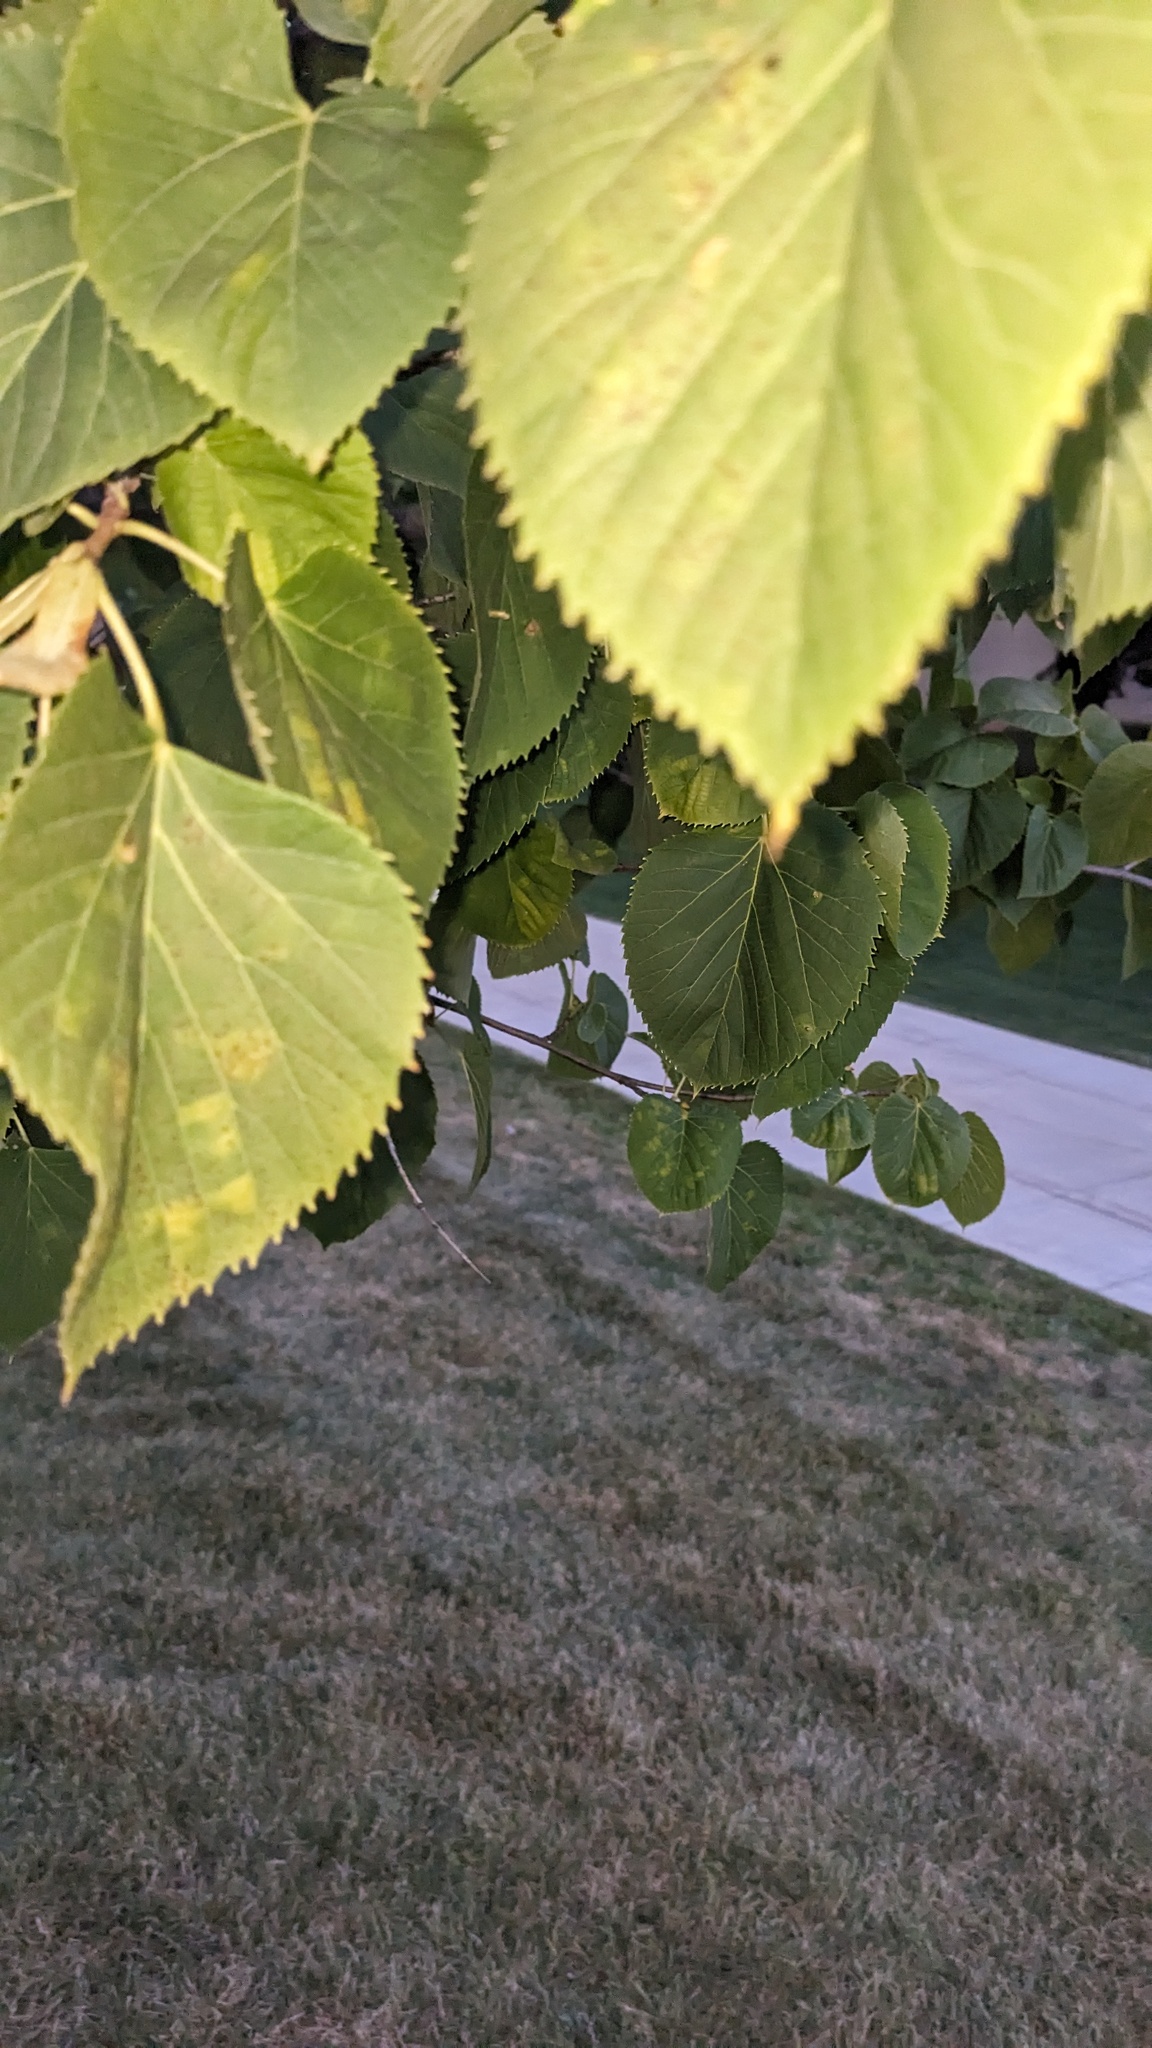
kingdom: Animalia
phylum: Arthropoda
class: Arachnida
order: Trombidiformes
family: Phytoptidae
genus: Phytoptus
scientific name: Phytoptus abnormis
